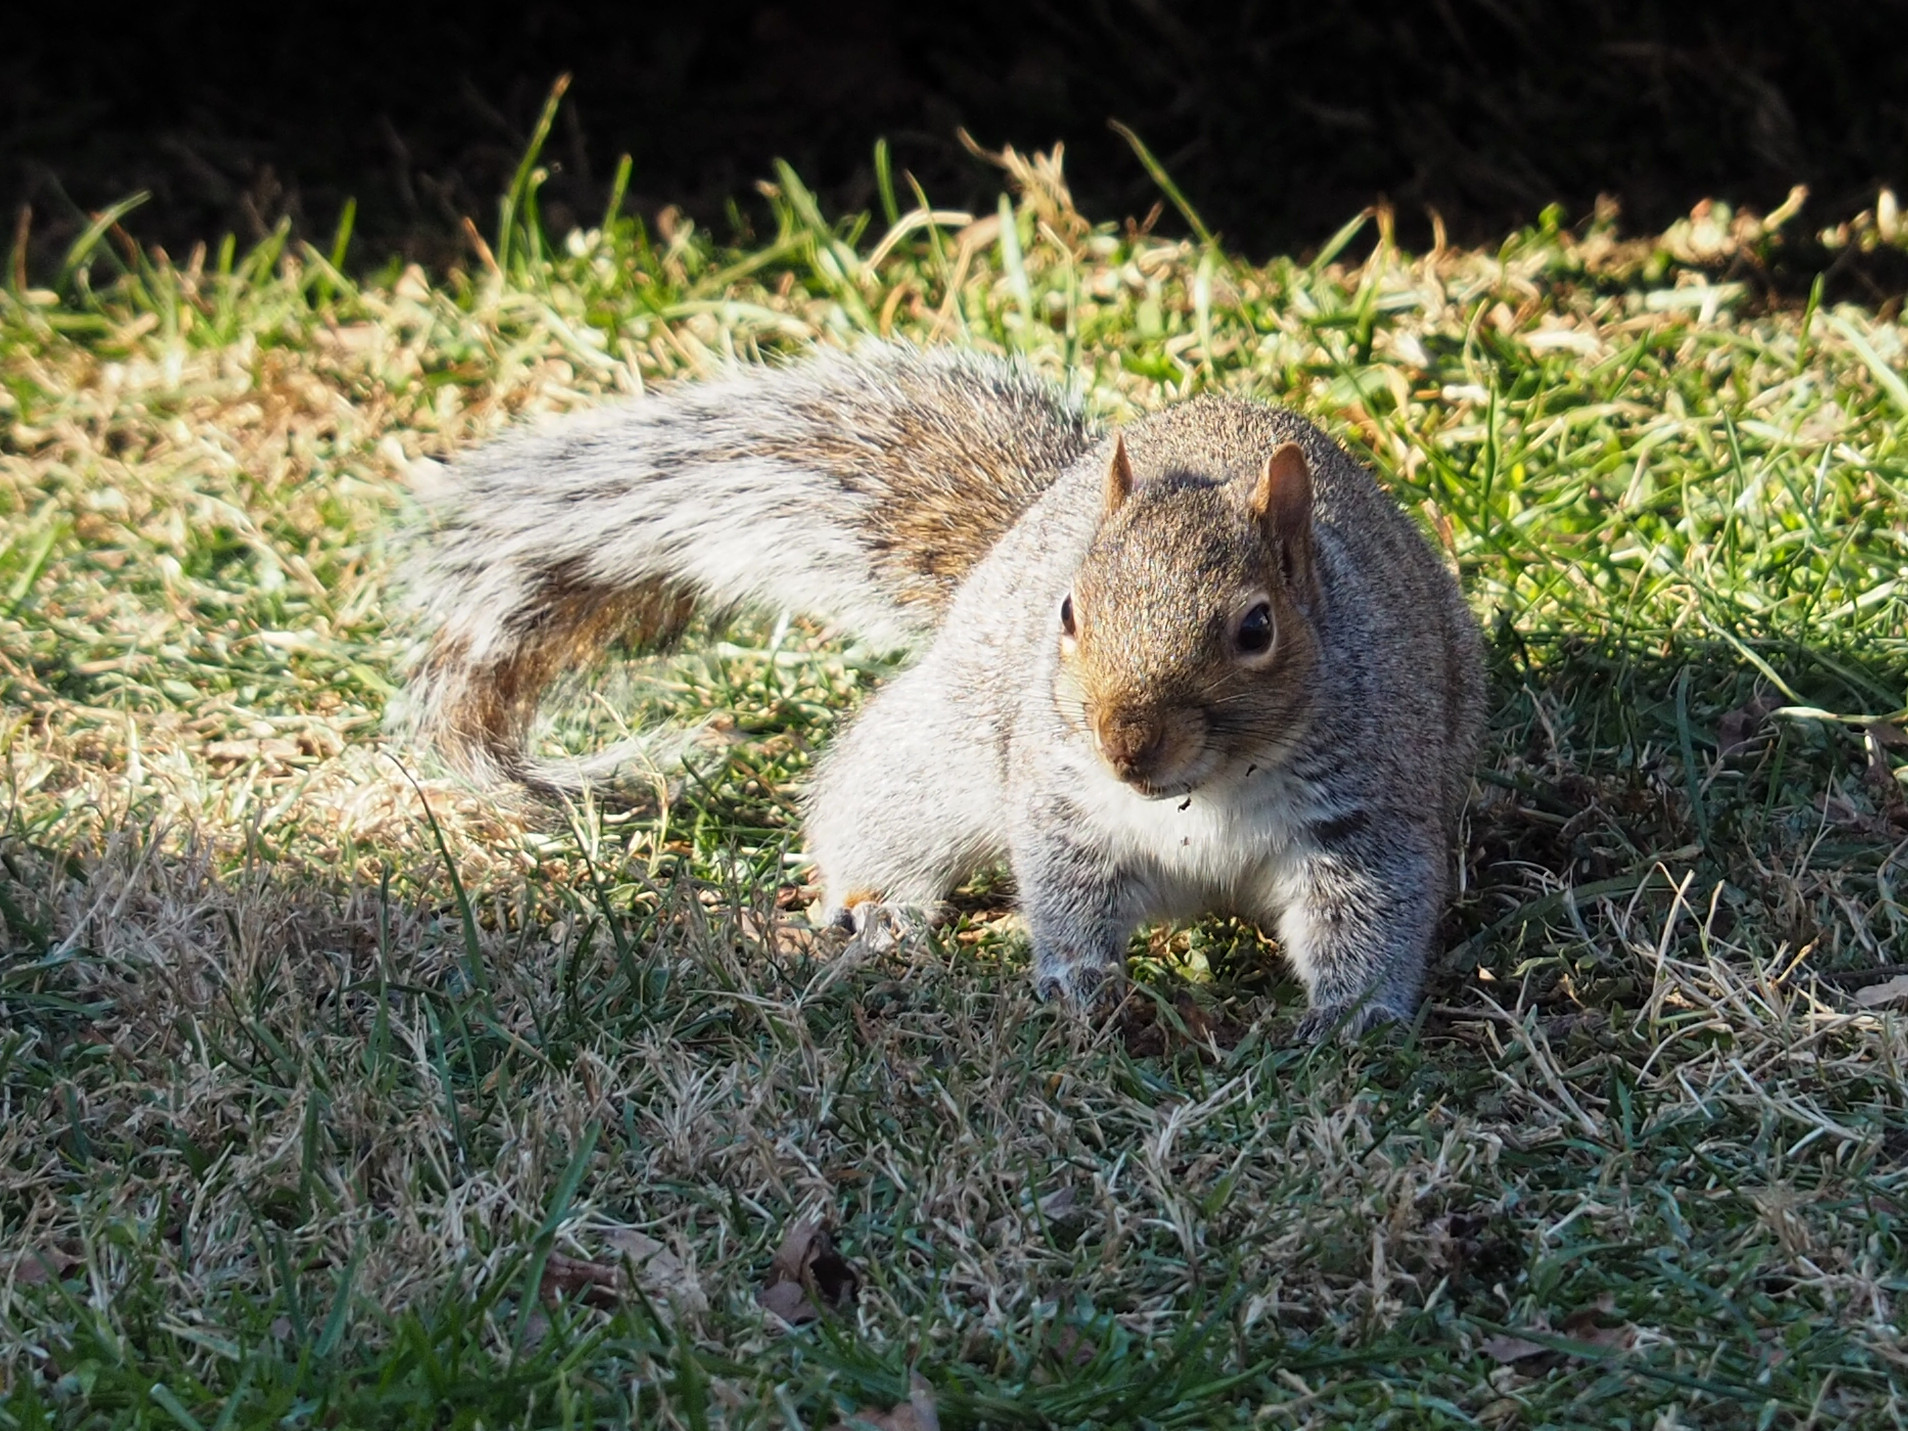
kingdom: Animalia
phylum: Chordata
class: Mammalia
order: Rodentia
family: Sciuridae
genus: Sciurus
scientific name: Sciurus carolinensis
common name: Eastern gray squirrel
